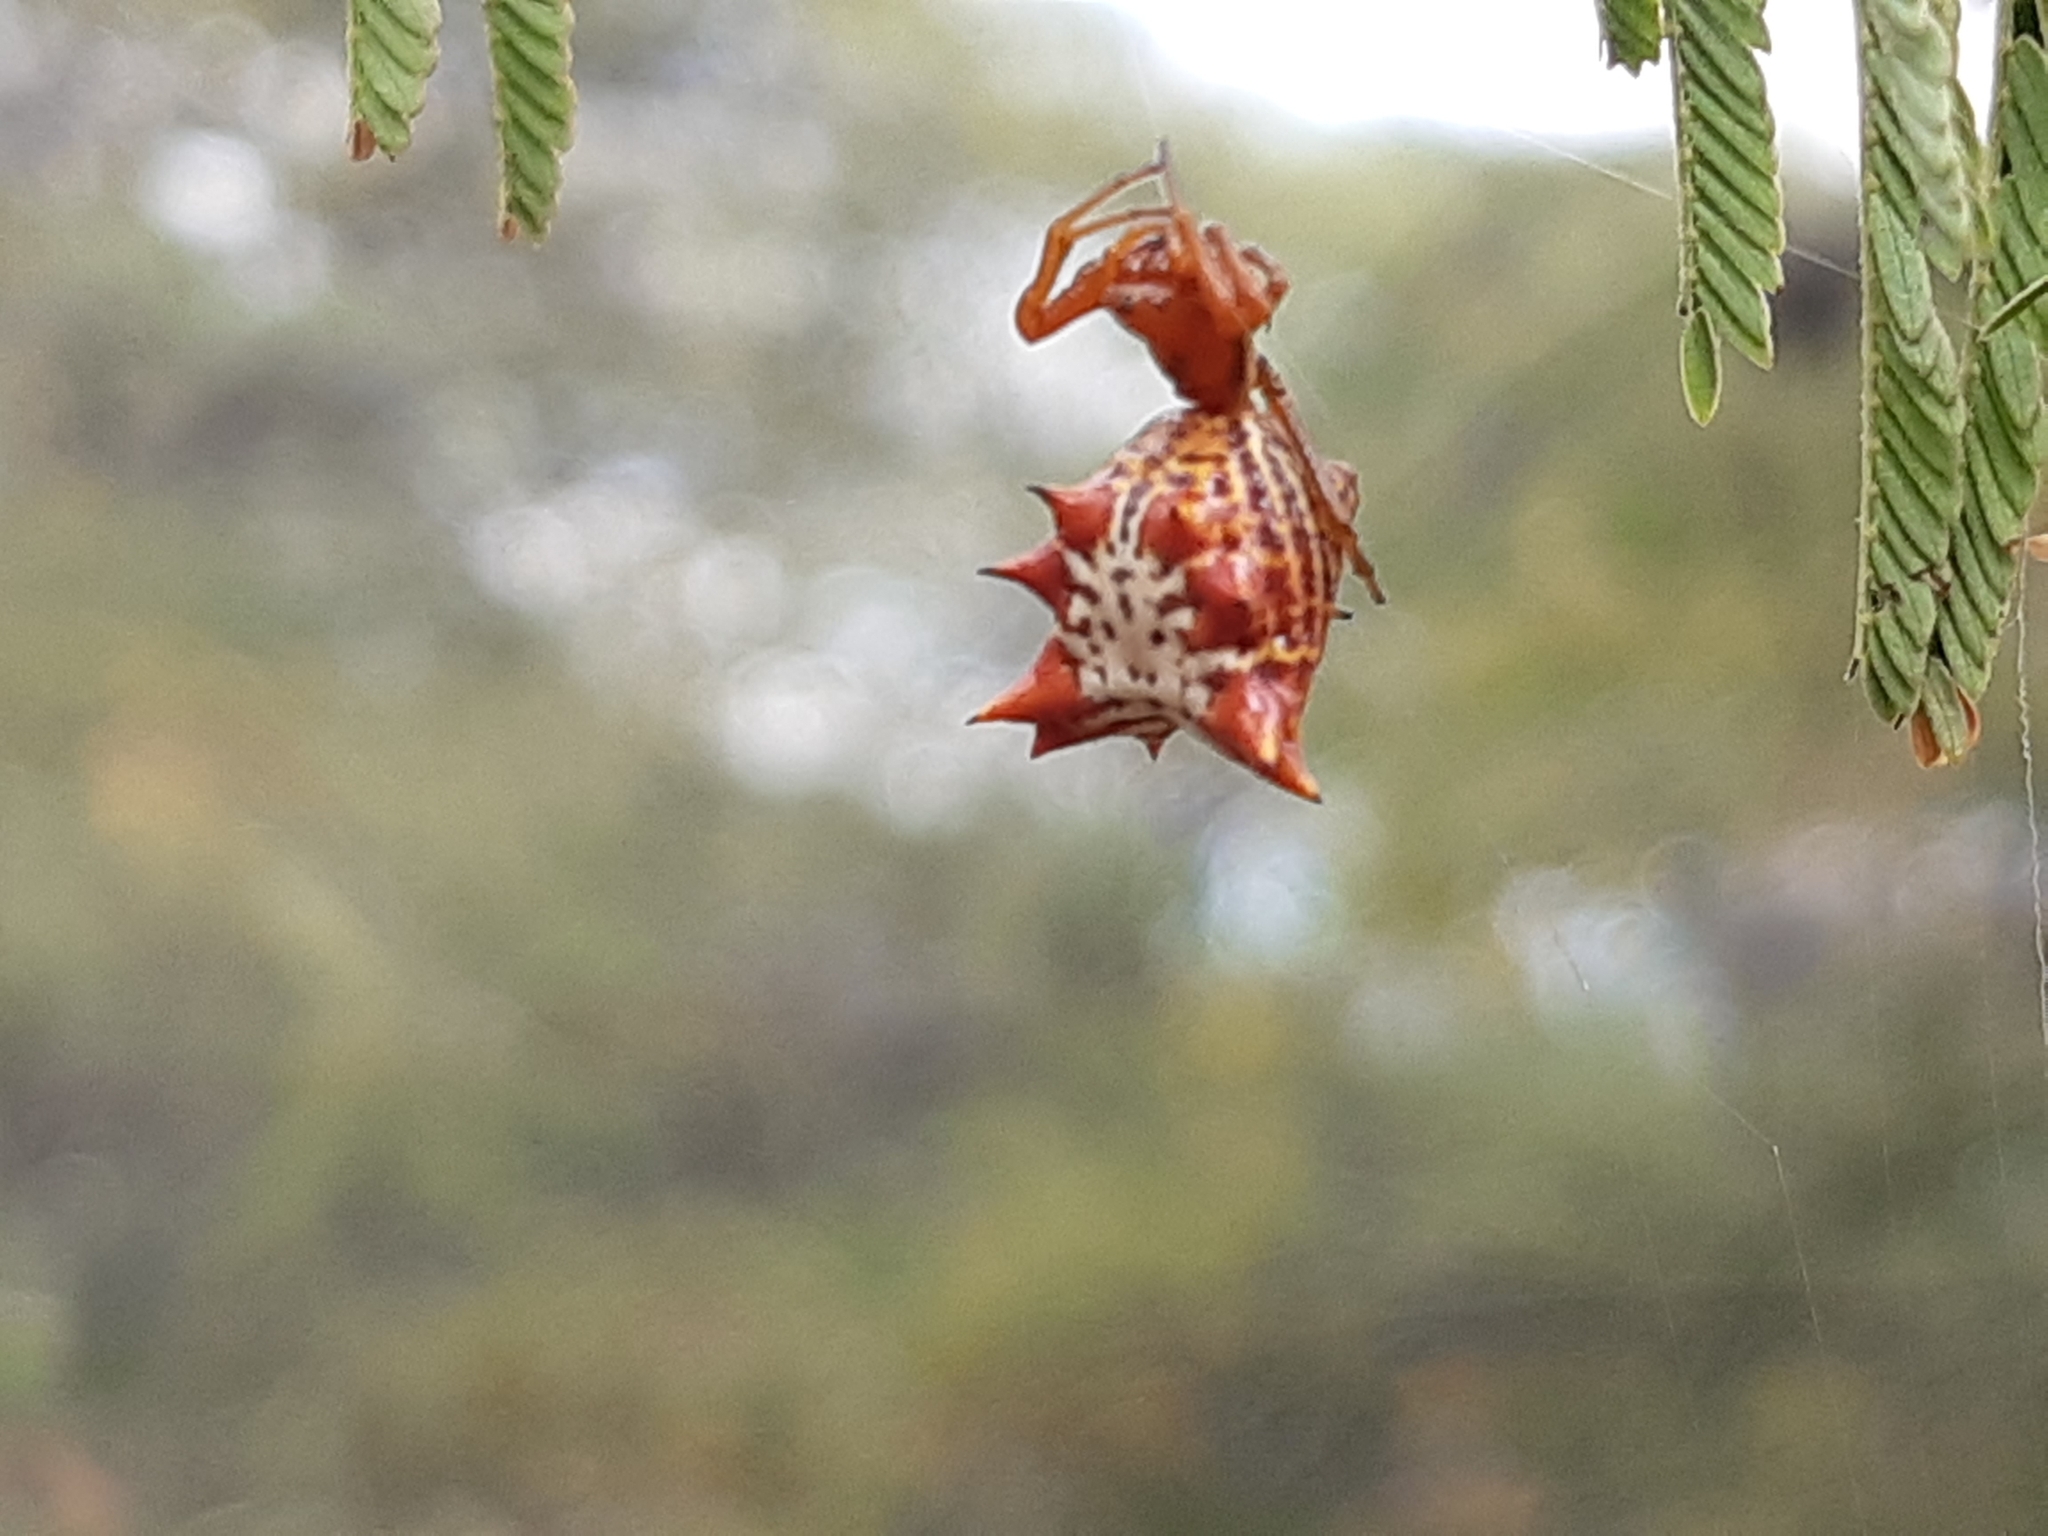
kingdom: Animalia
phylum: Arthropoda
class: Arachnida
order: Araneae
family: Araneidae
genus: Micrathena
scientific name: Micrathena gracilis
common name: Orb weavers
